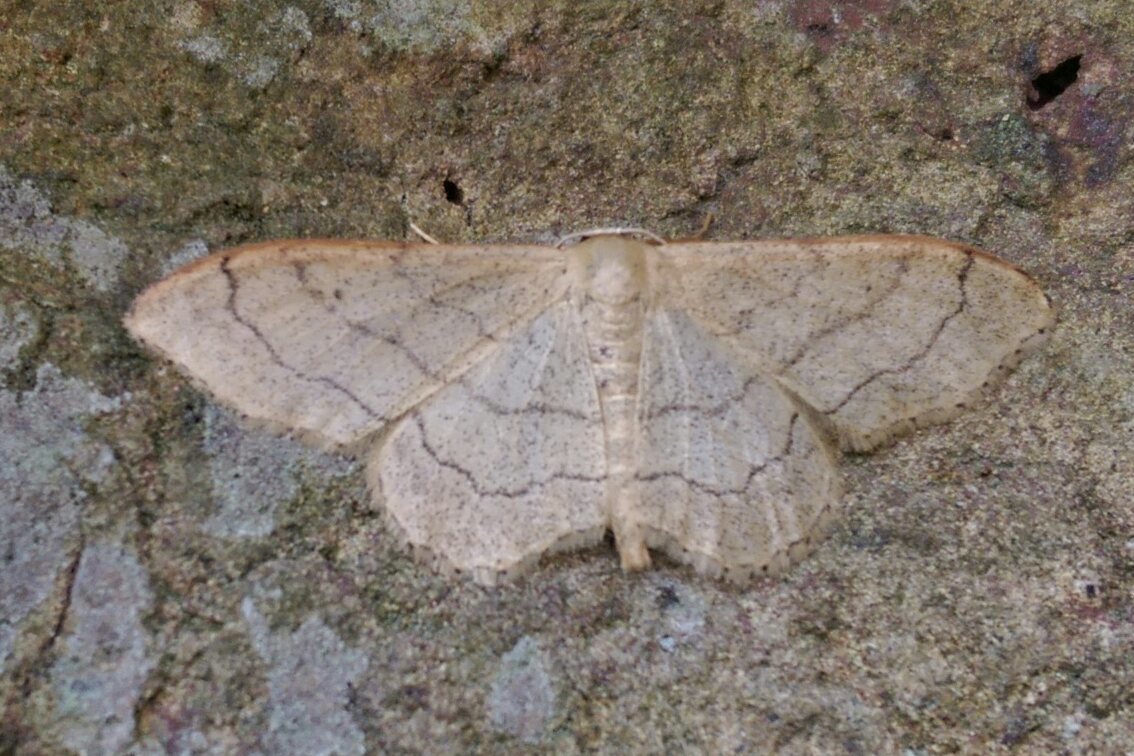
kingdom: Animalia
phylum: Arthropoda
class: Insecta
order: Lepidoptera
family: Geometridae
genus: Idaea
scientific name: Idaea aversata
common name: Riband wave
